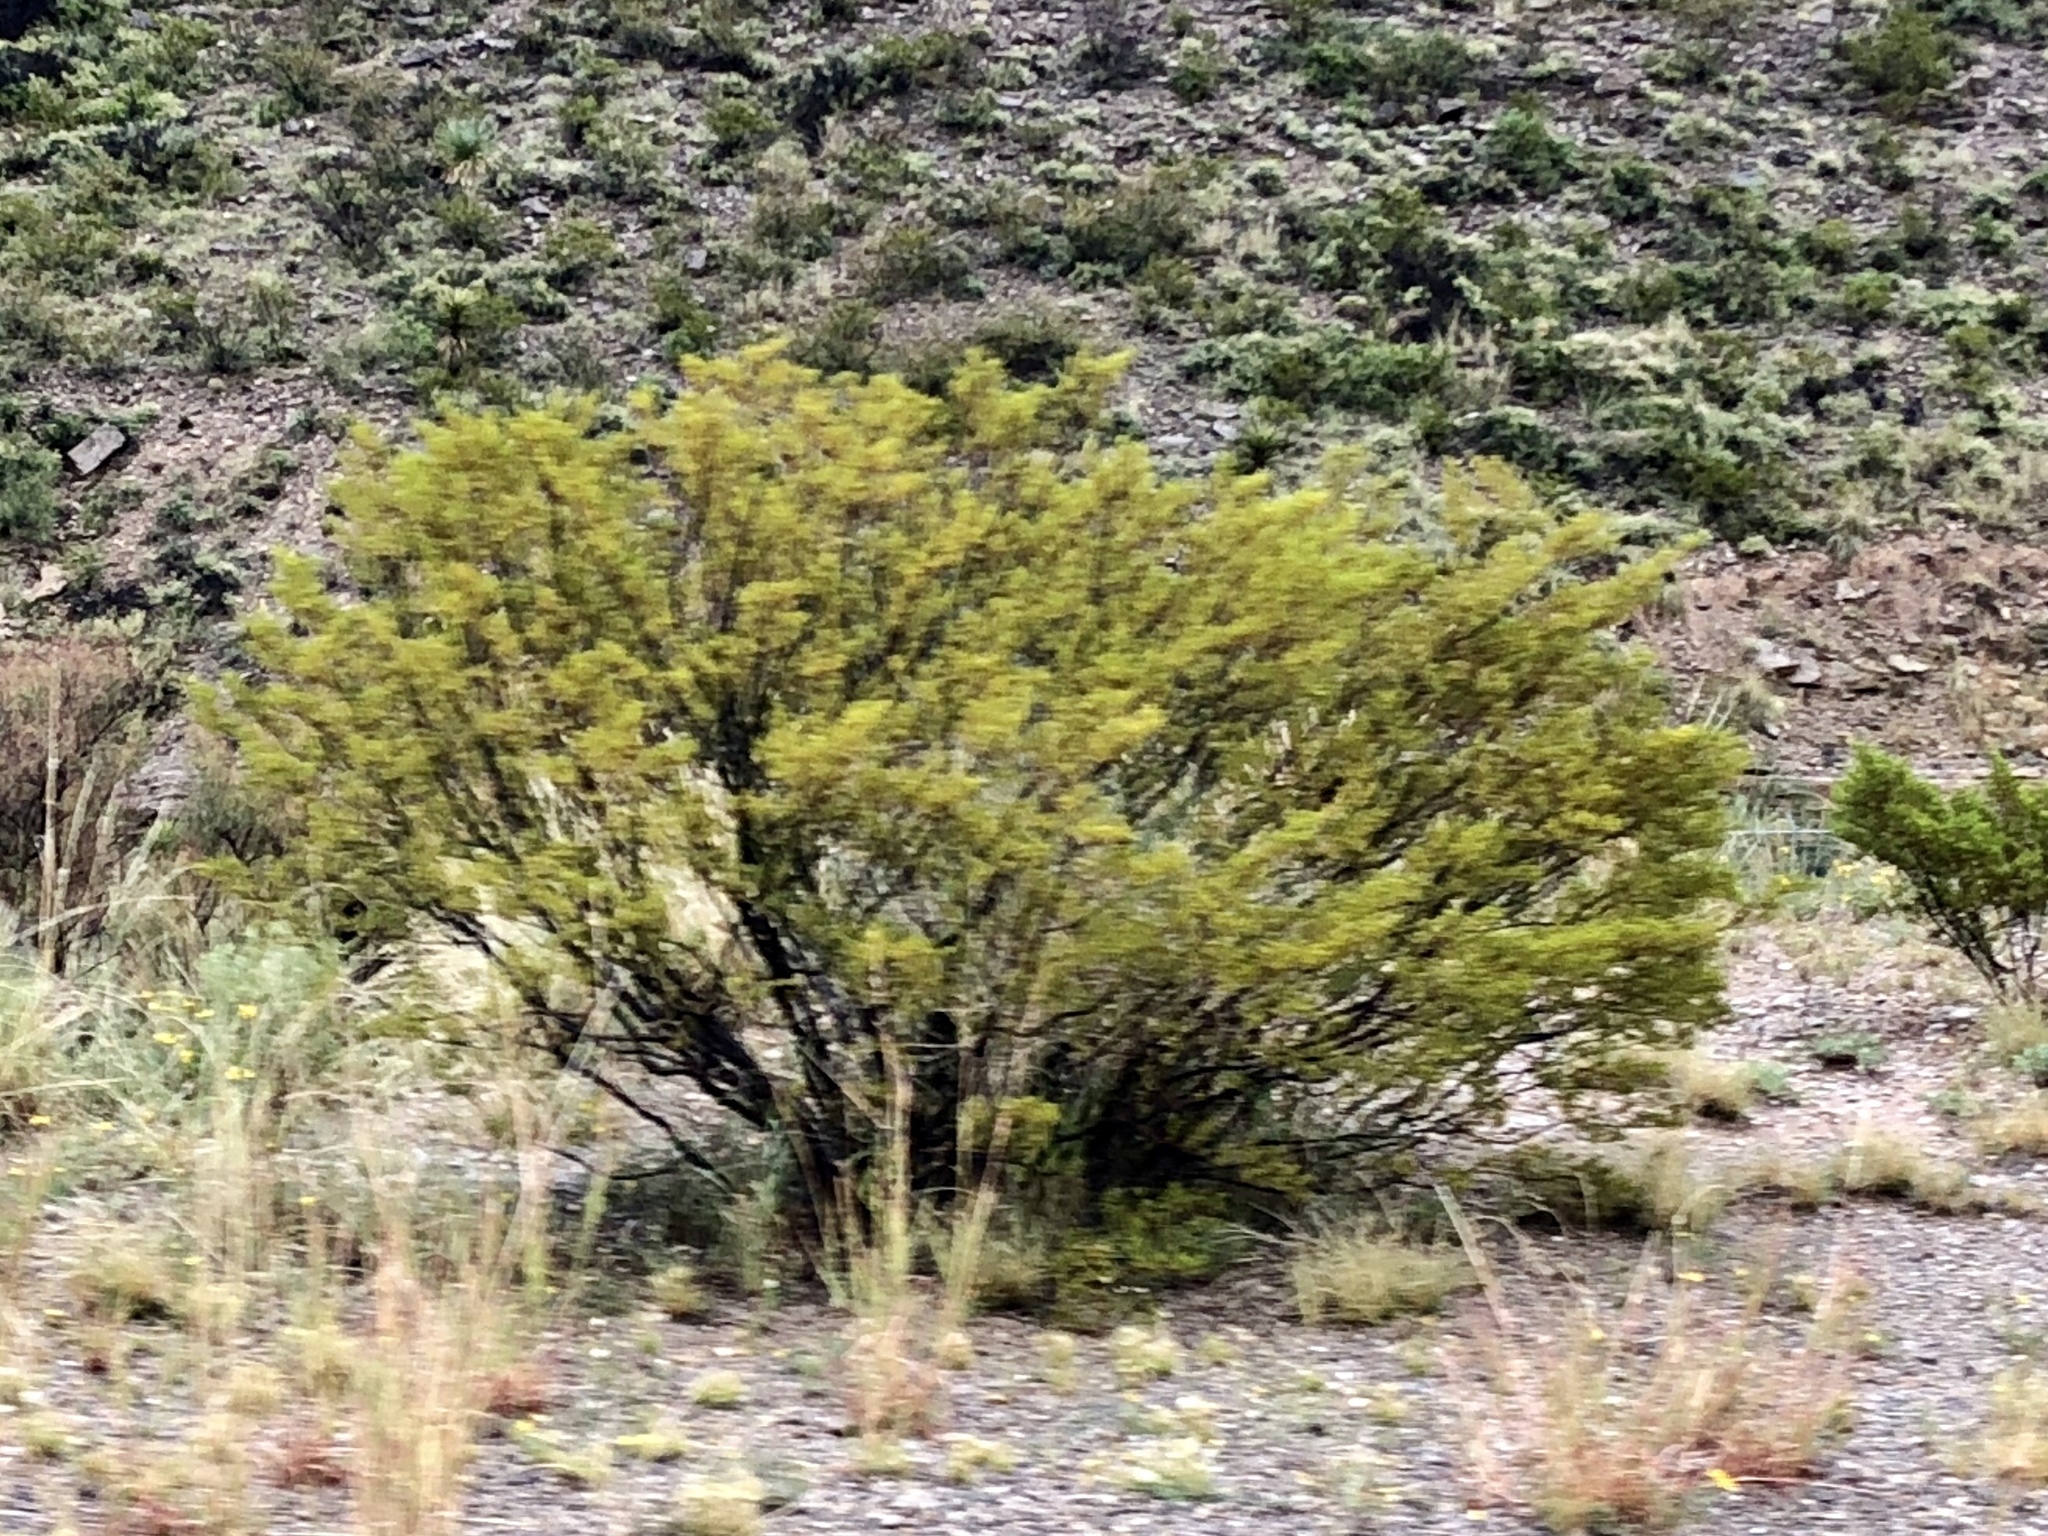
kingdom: Plantae
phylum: Tracheophyta
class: Magnoliopsida
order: Zygophyllales
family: Zygophyllaceae
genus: Larrea
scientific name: Larrea tridentata
